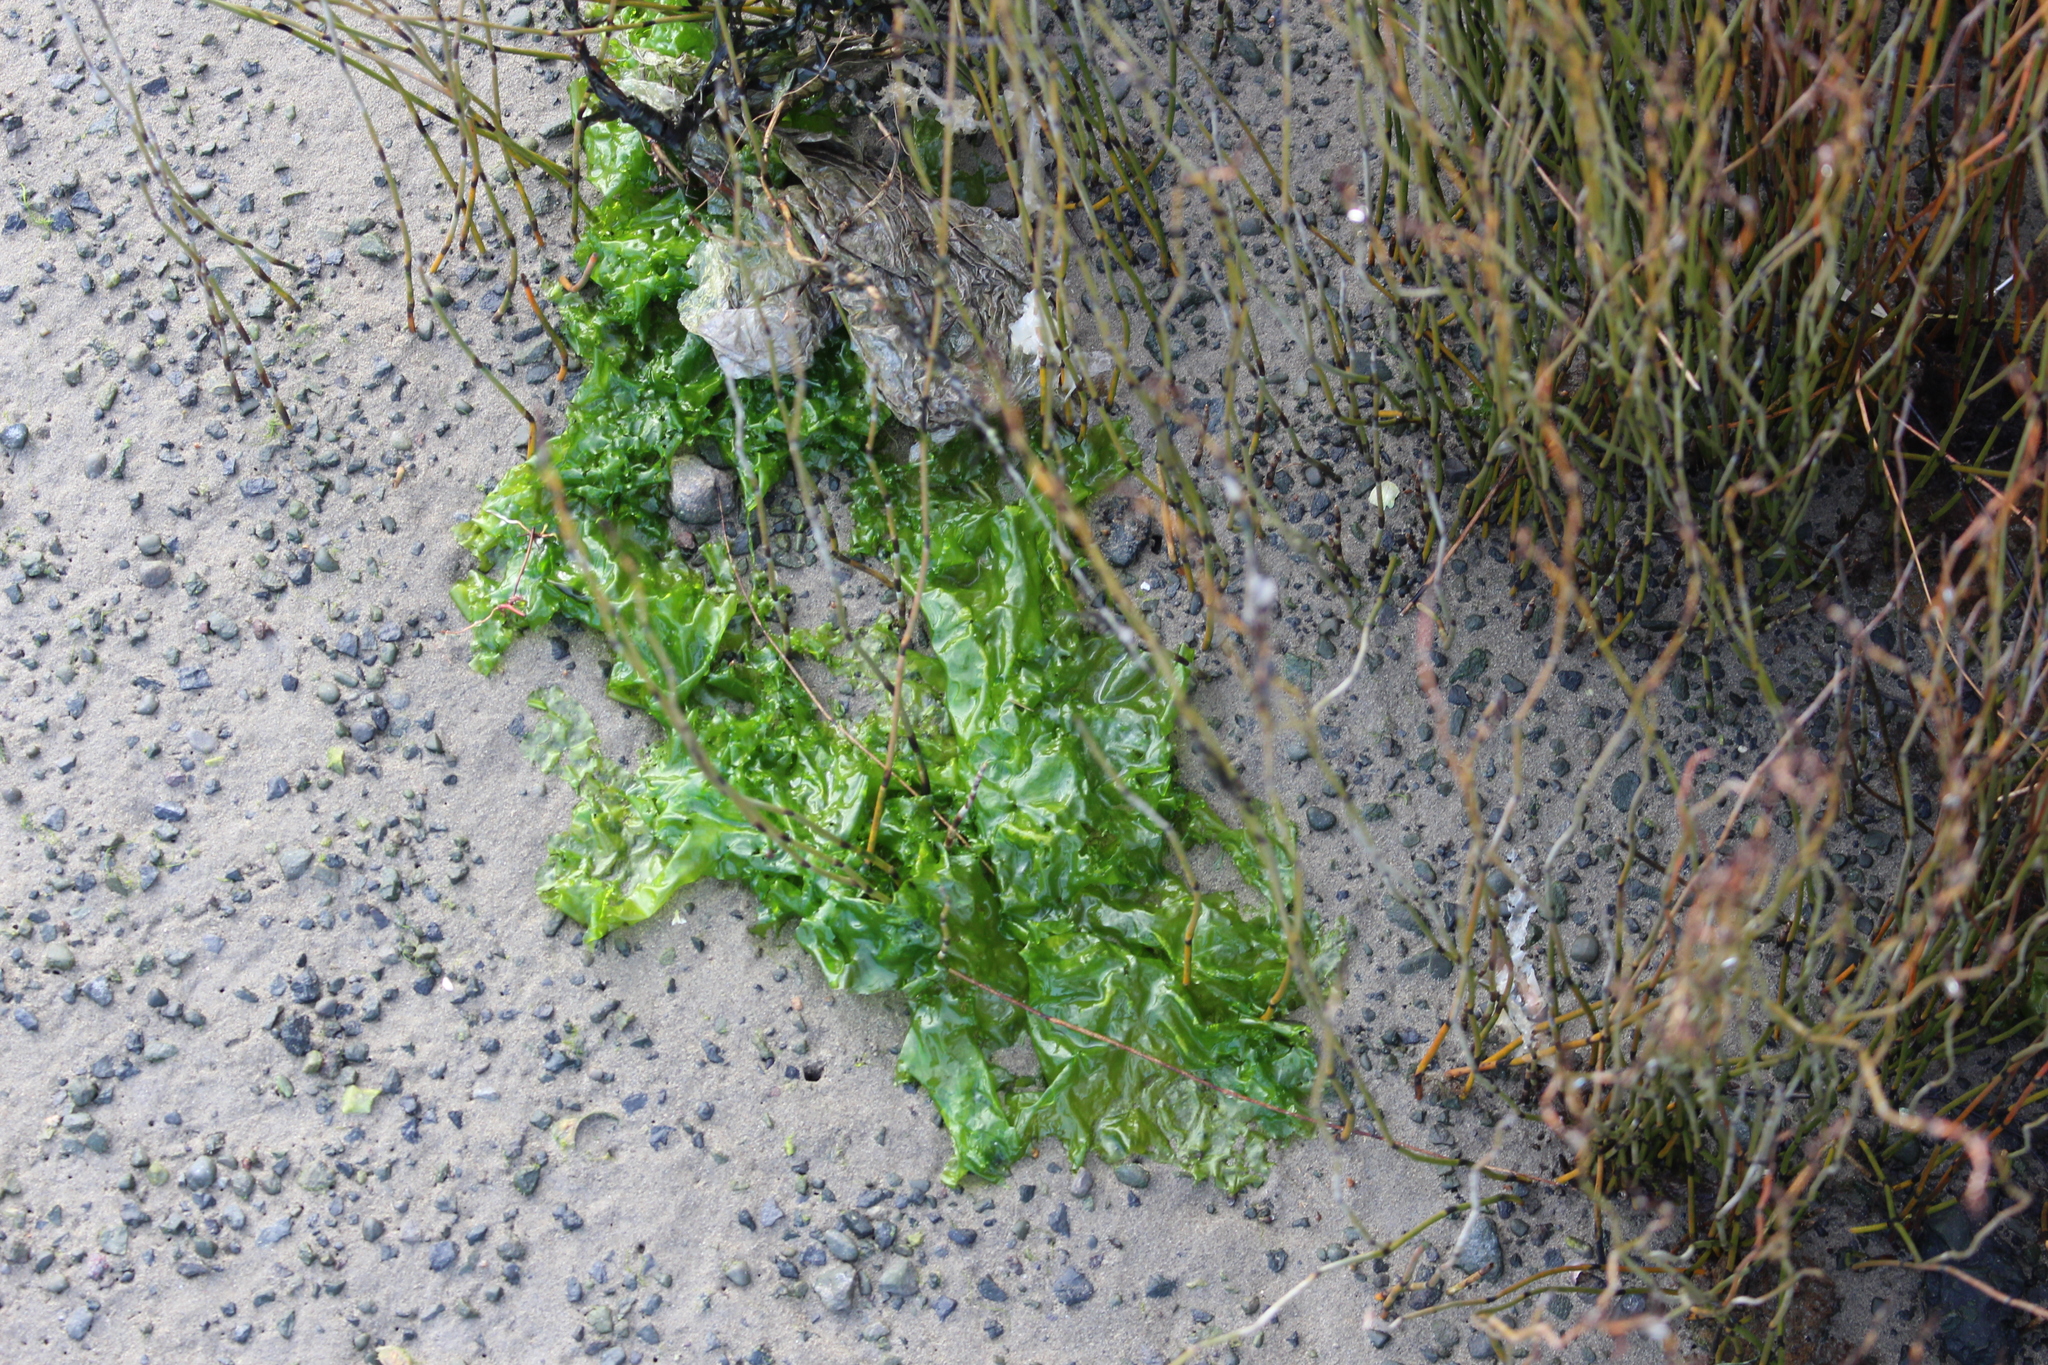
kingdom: Plantae
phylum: Chlorophyta
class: Ulvophyceae
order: Ulvales
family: Ulvaceae
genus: Ulva
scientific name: Ulva
